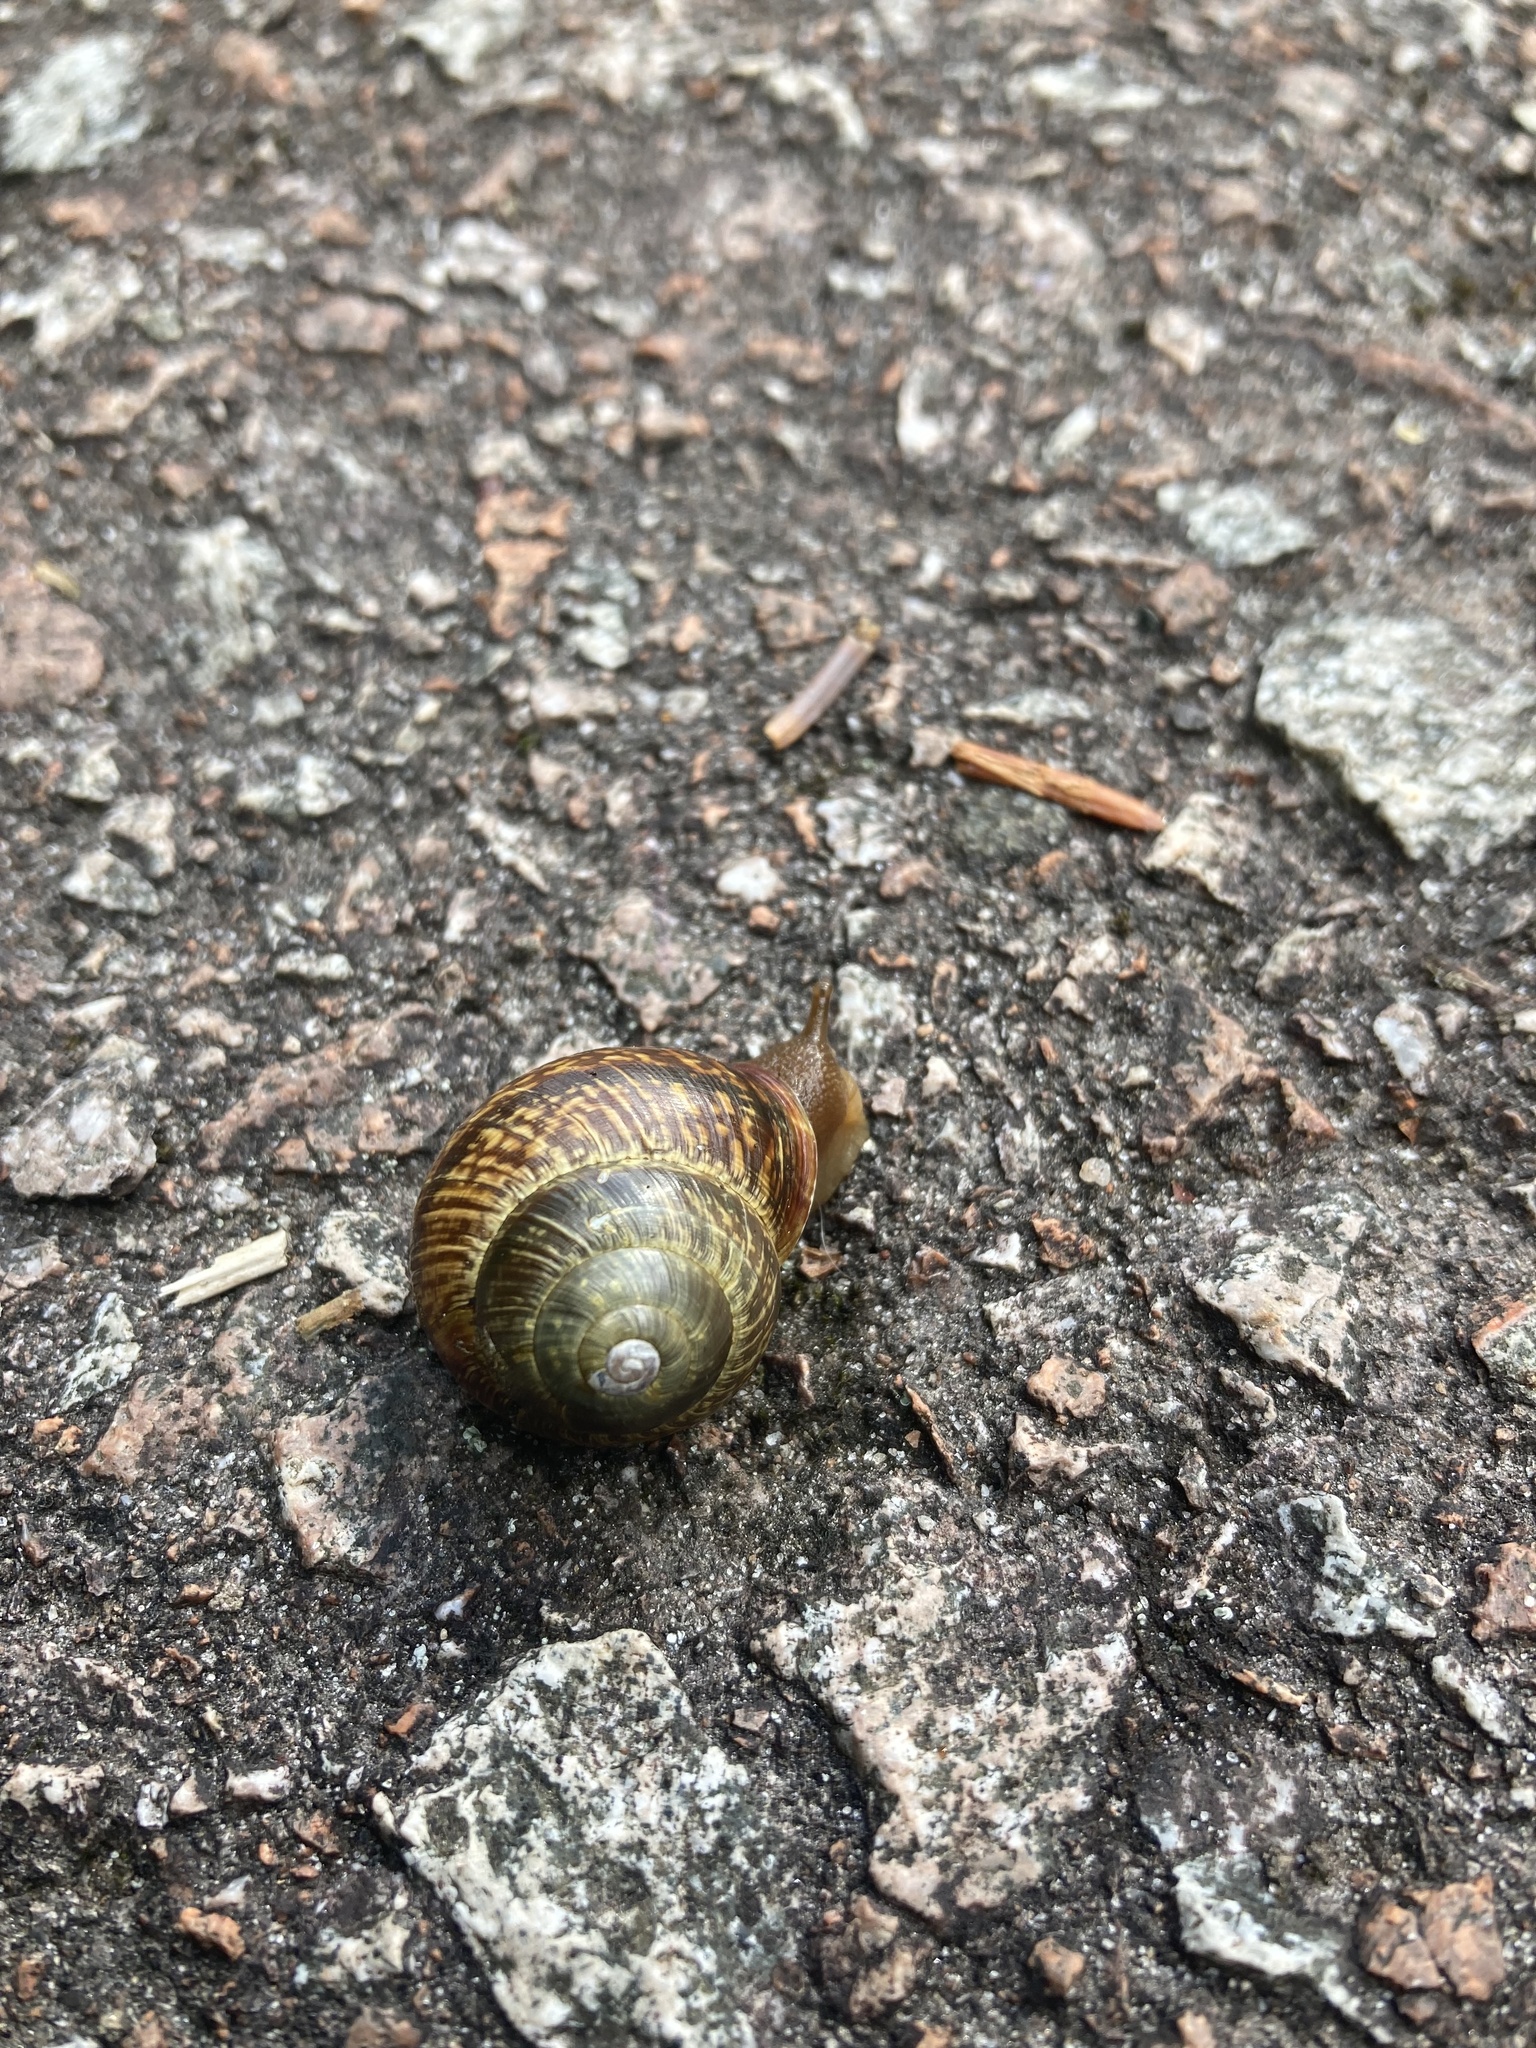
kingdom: Animalia
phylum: Mollusca
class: Gastropoda
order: Stylommatophora
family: Helicidae
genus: Arianta
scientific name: Arianta arbustorum
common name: Copse snail
